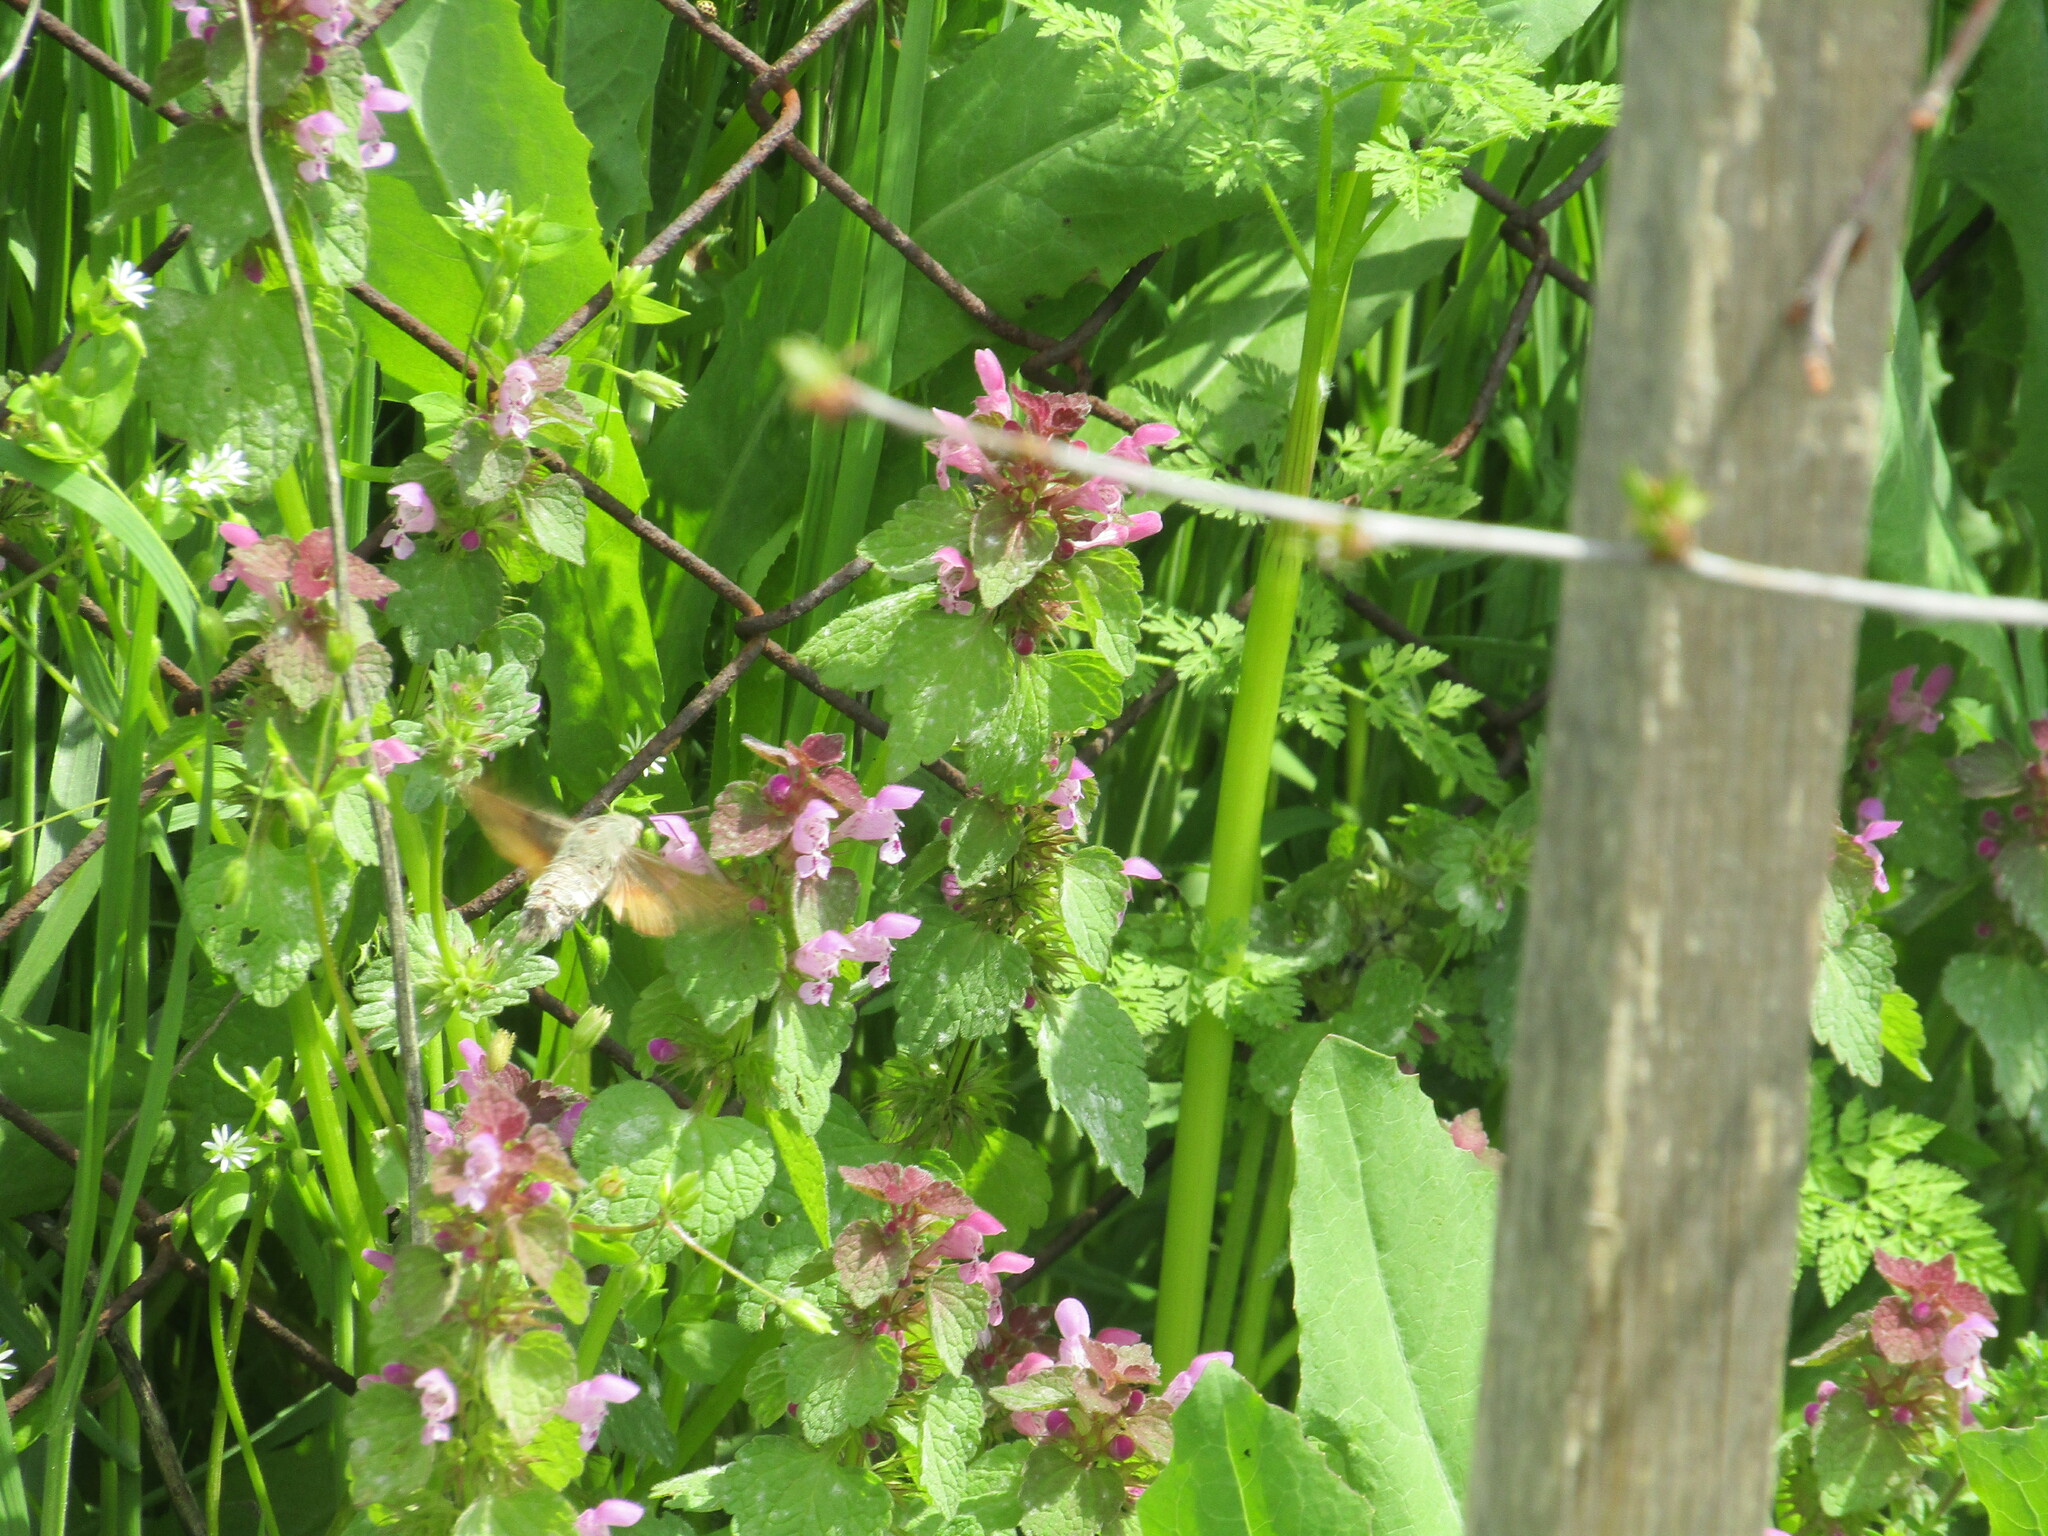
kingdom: Animalia
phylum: Arthropoda
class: Insecta
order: Lepidoptera
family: Sphingidae
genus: Macroglossum
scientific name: Macroglossum stellatarum
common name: Humming-bird hawk-moth
